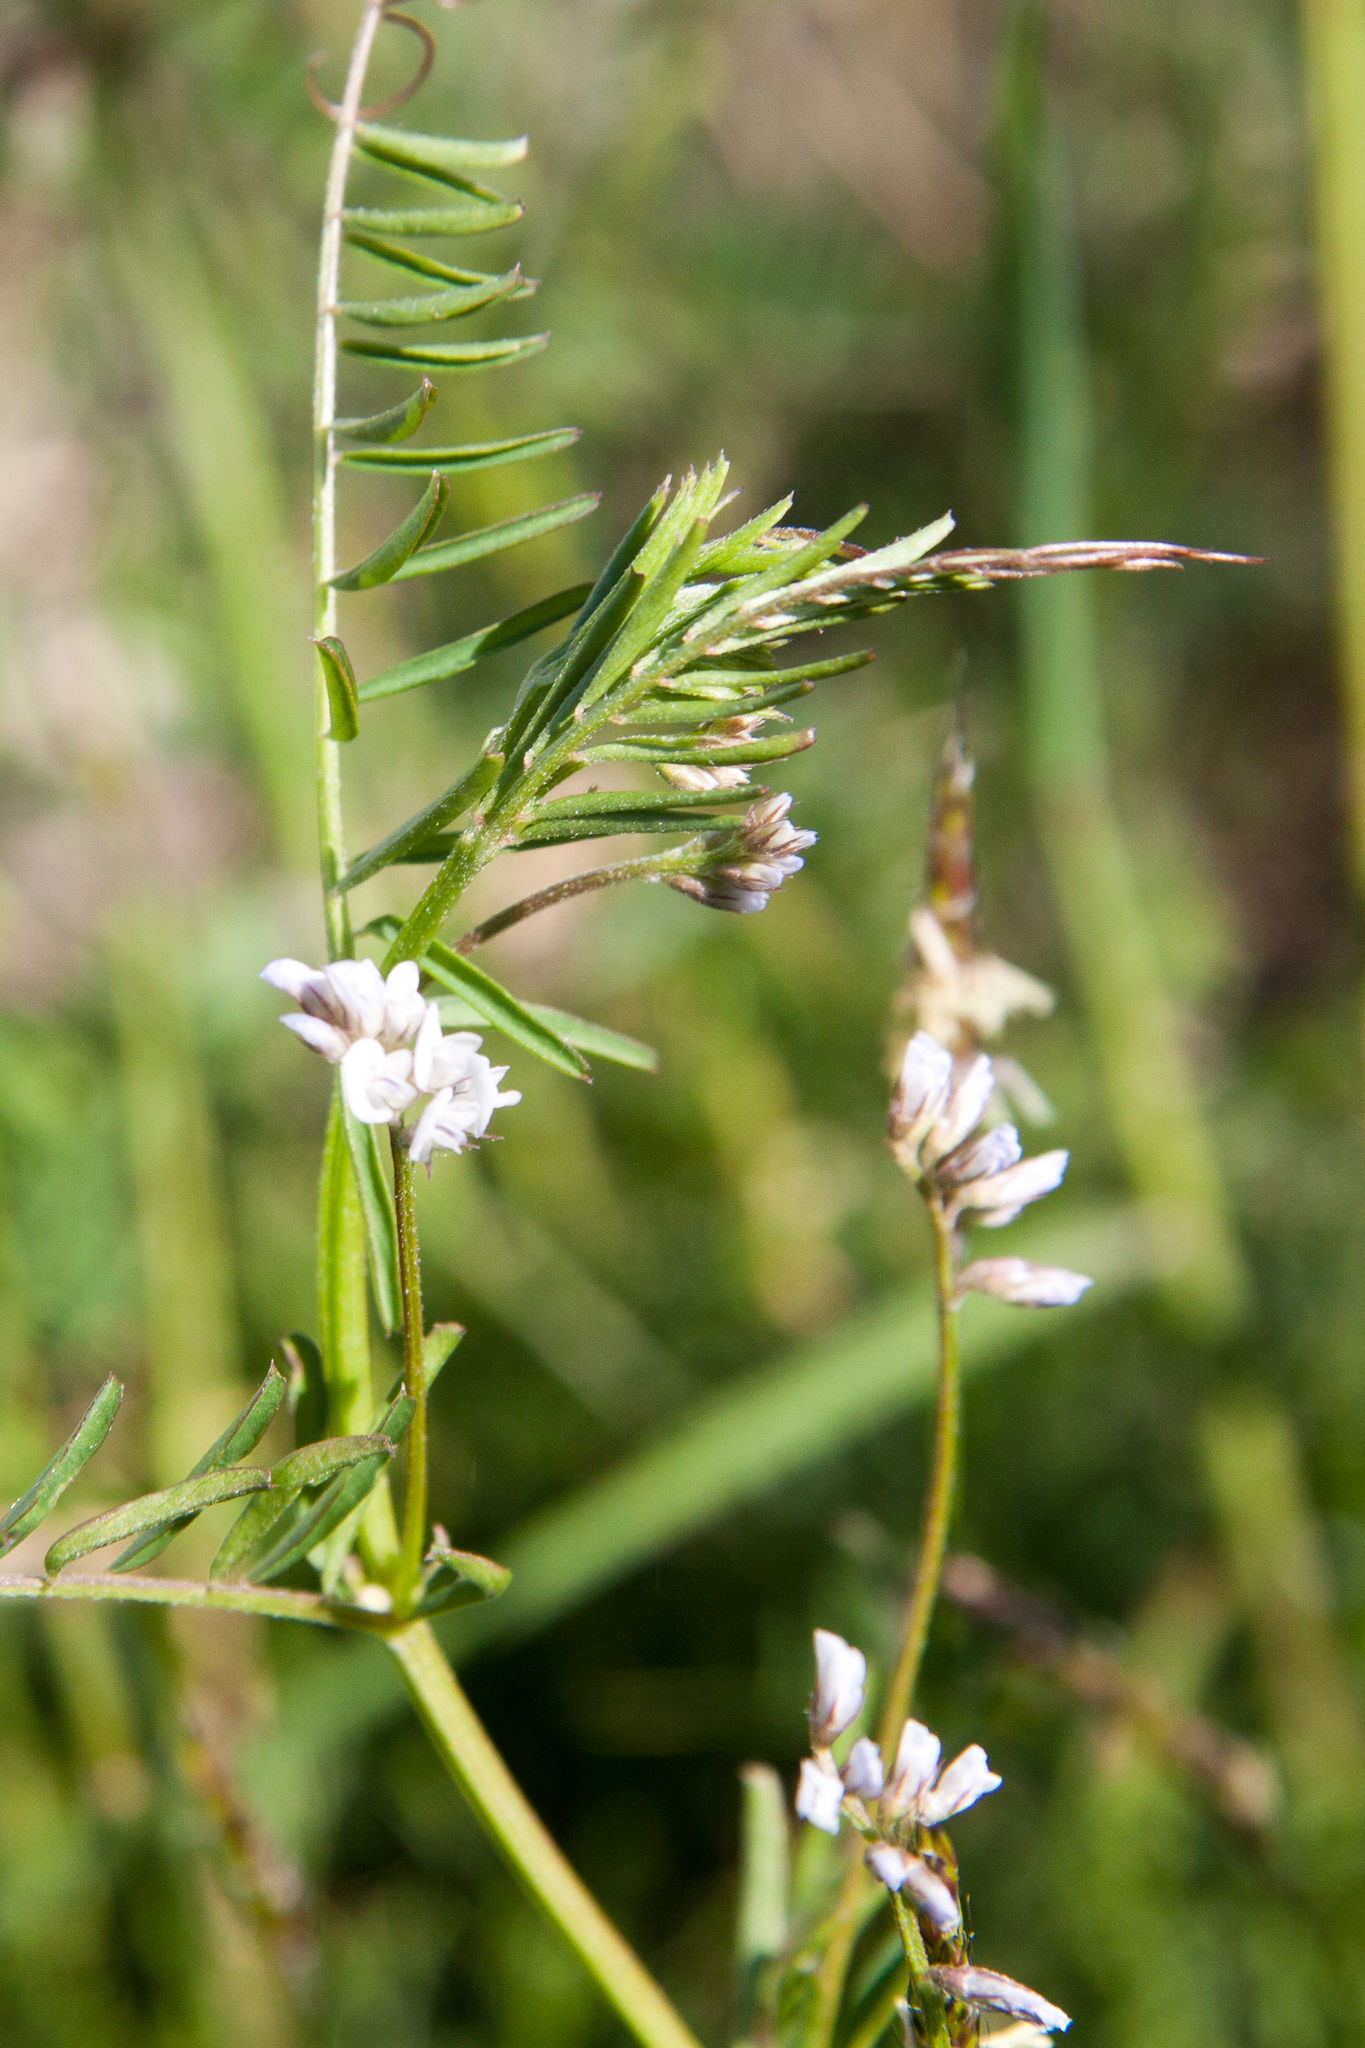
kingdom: Plantae
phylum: Tracheophyta
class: Magnoliopsida
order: Fabales
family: Fabaceae
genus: Vicia
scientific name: Vicia hirsuta
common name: Tiny vetch
